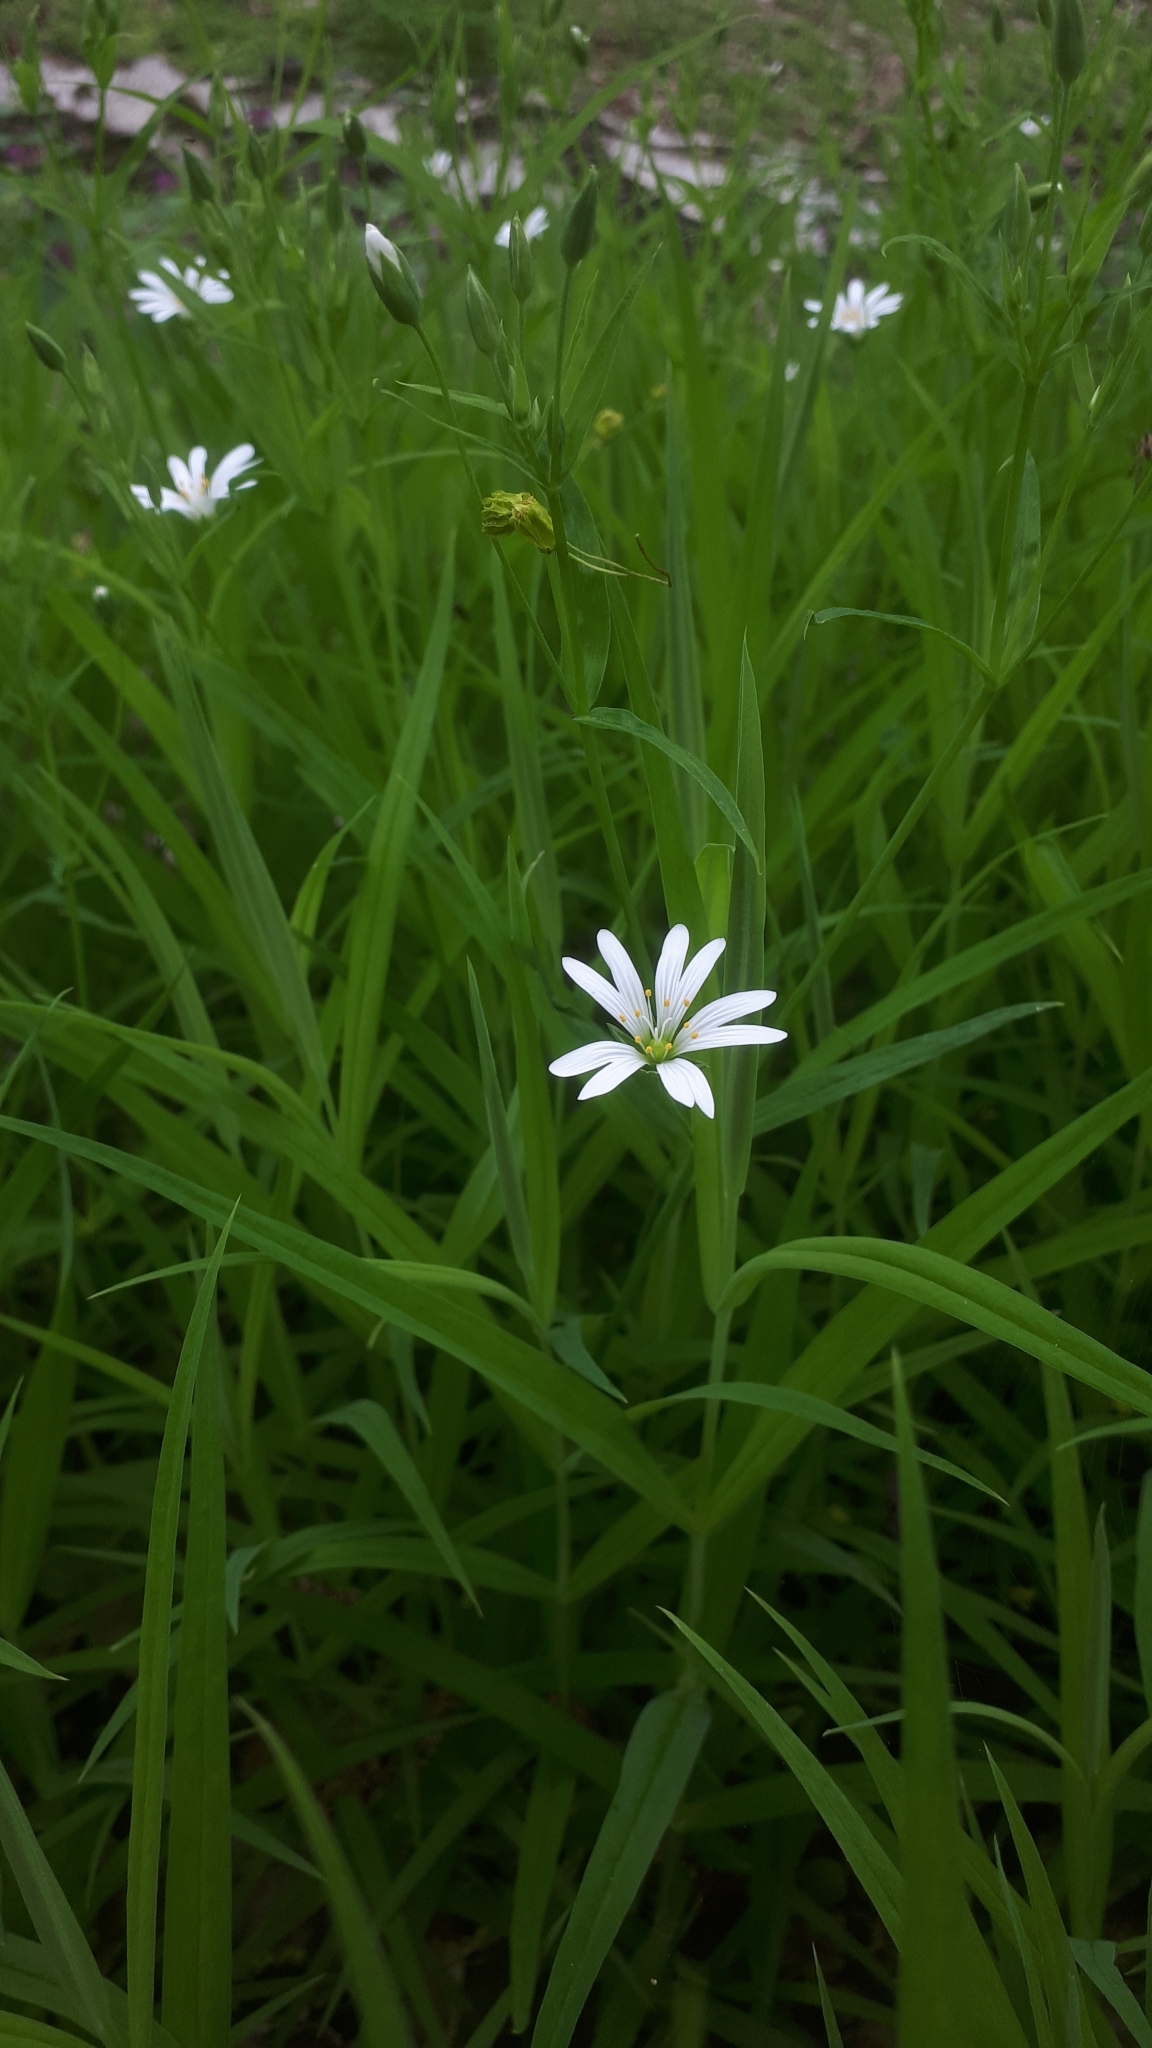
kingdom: Plantae
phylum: Tracheophyta
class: Magnoliopsida
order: Caryophyllales
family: Caryophyllaceae
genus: Rabelera
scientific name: Rabelera holostea
